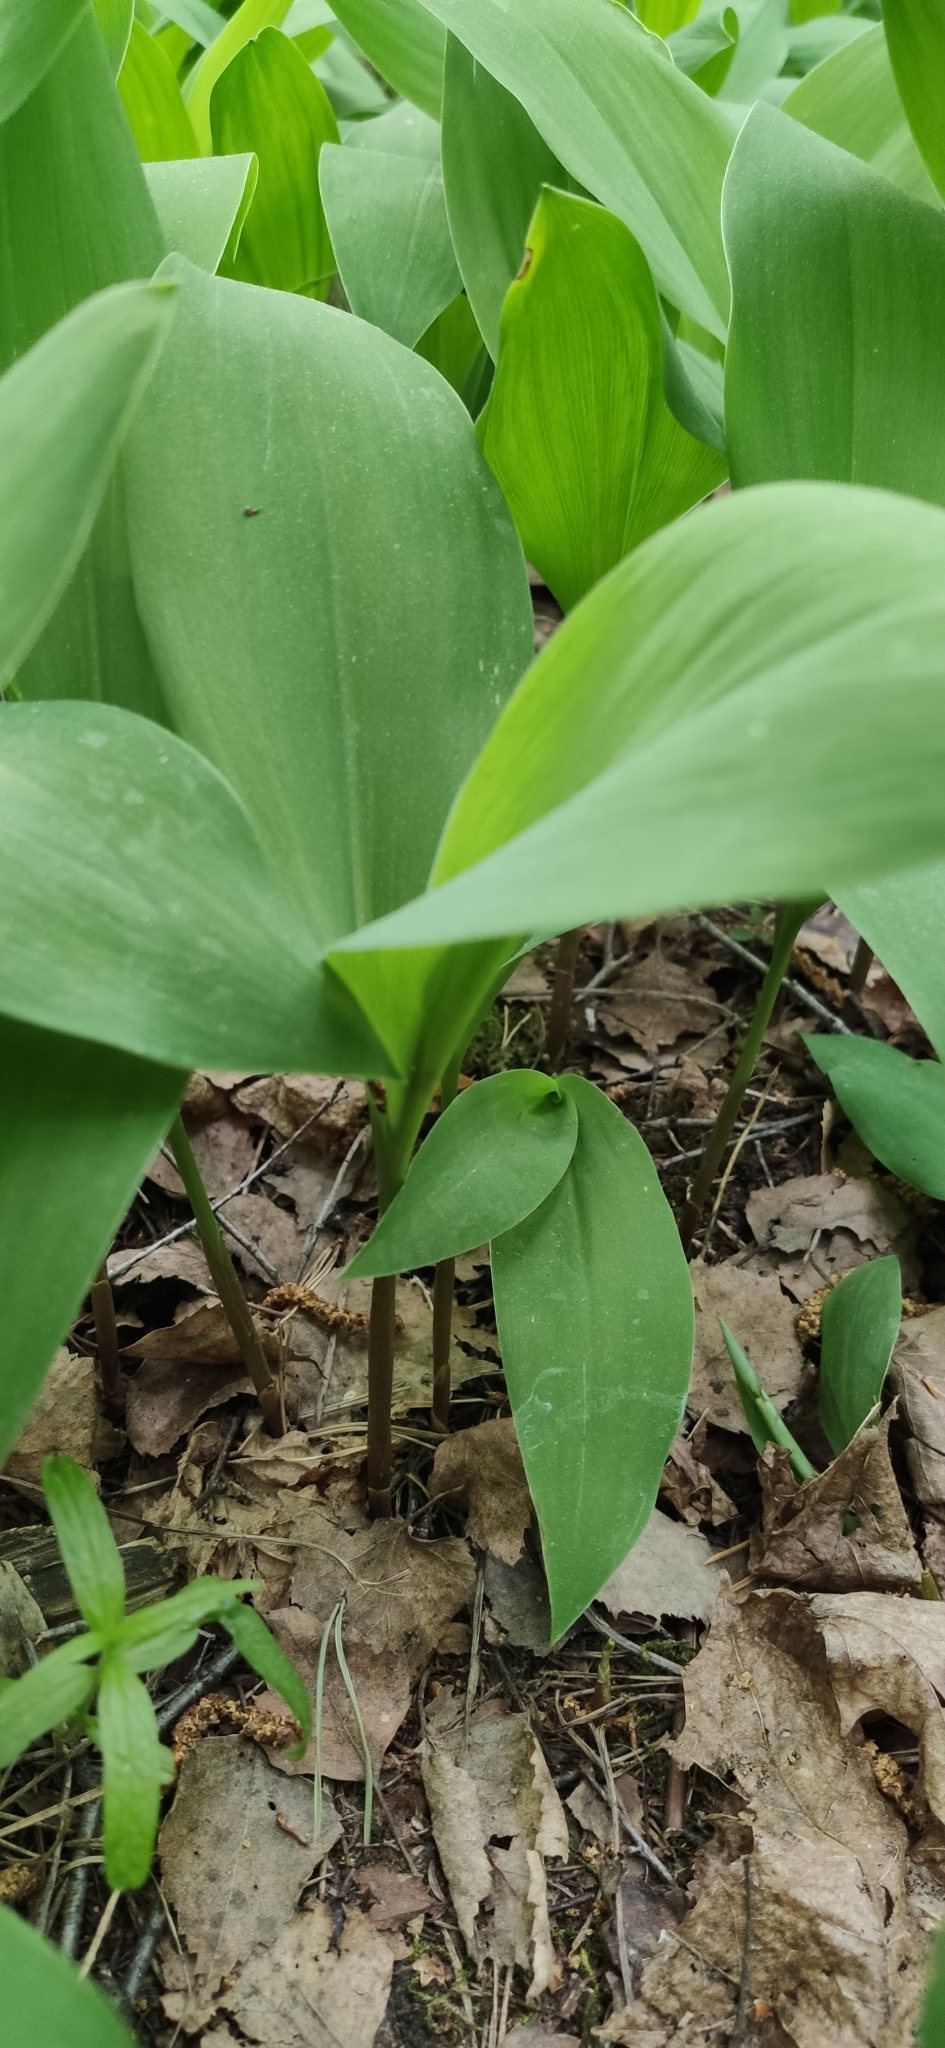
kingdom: Plantae
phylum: Tracheophyta
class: Liliopsida
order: Asparagales
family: Asparagaceae
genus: Convallaria
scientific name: Convallaria majalis
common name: Lily-of-the-valley
